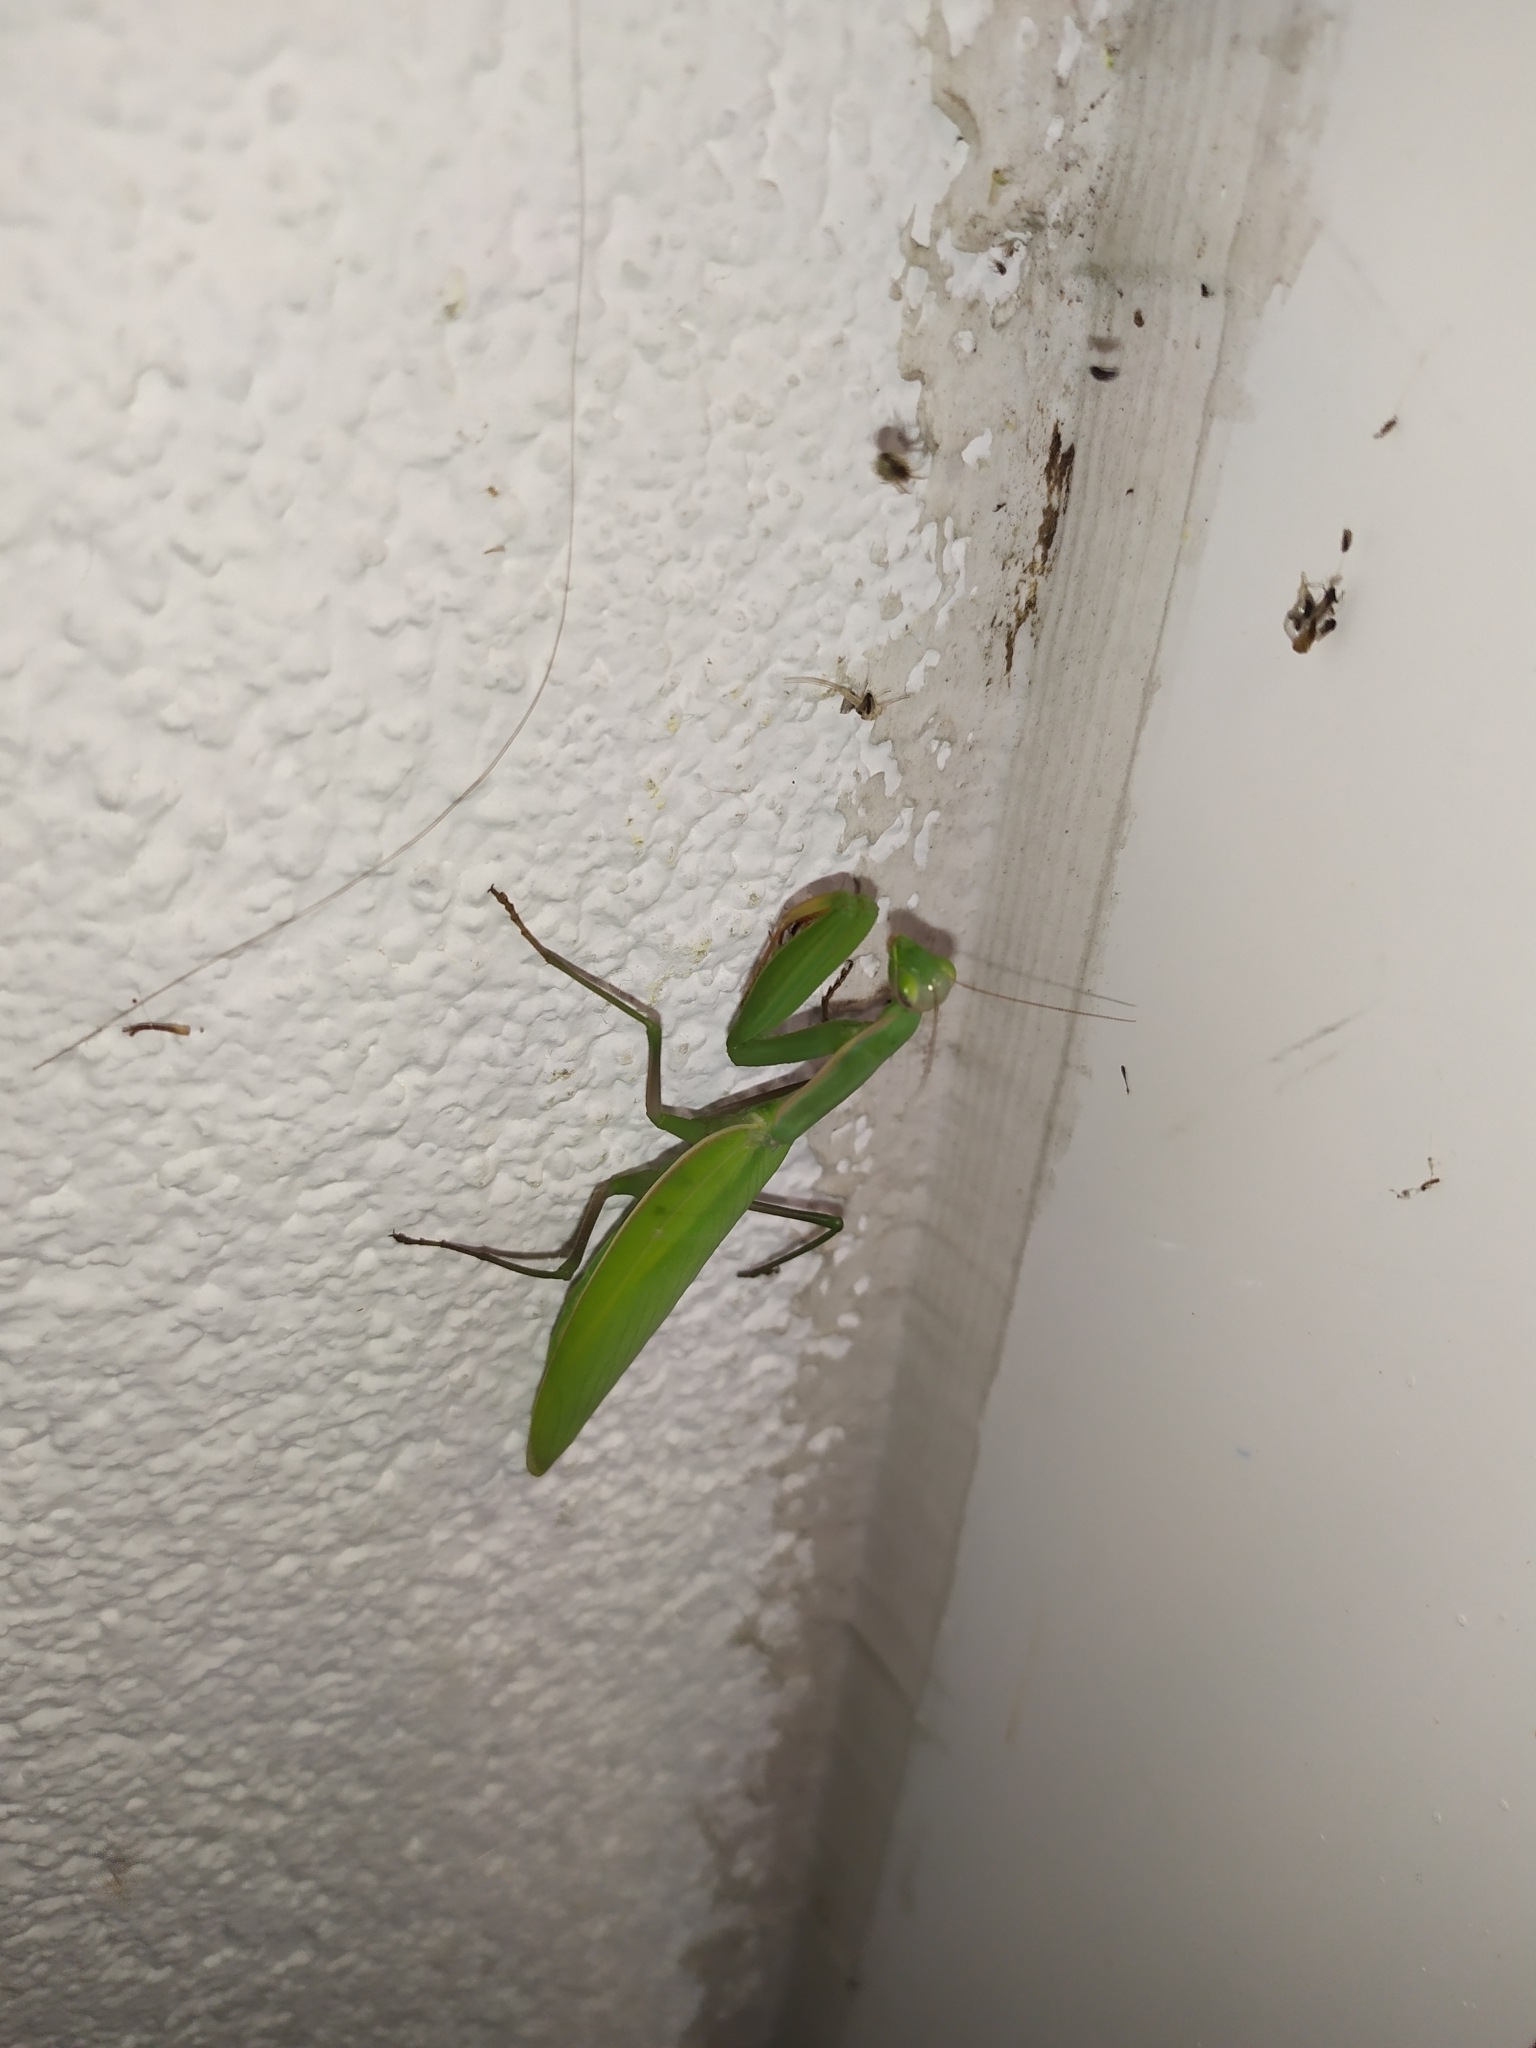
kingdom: Animalia
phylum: Arthropoda
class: Insecta
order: Mantodea
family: Mantidae
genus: Mantis
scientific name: Mantis religiosa
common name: Praying mantis
